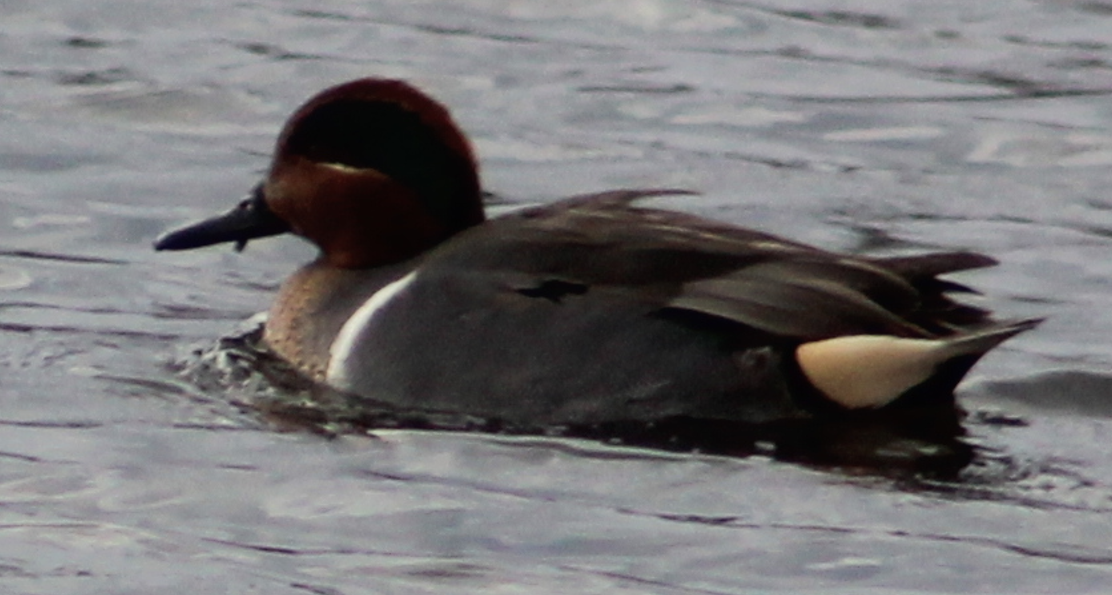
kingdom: Animalia
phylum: Chordata
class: Aves
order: Anseriformes
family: Anatidae
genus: Anas
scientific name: Anas crecca
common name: Eurasian teal
